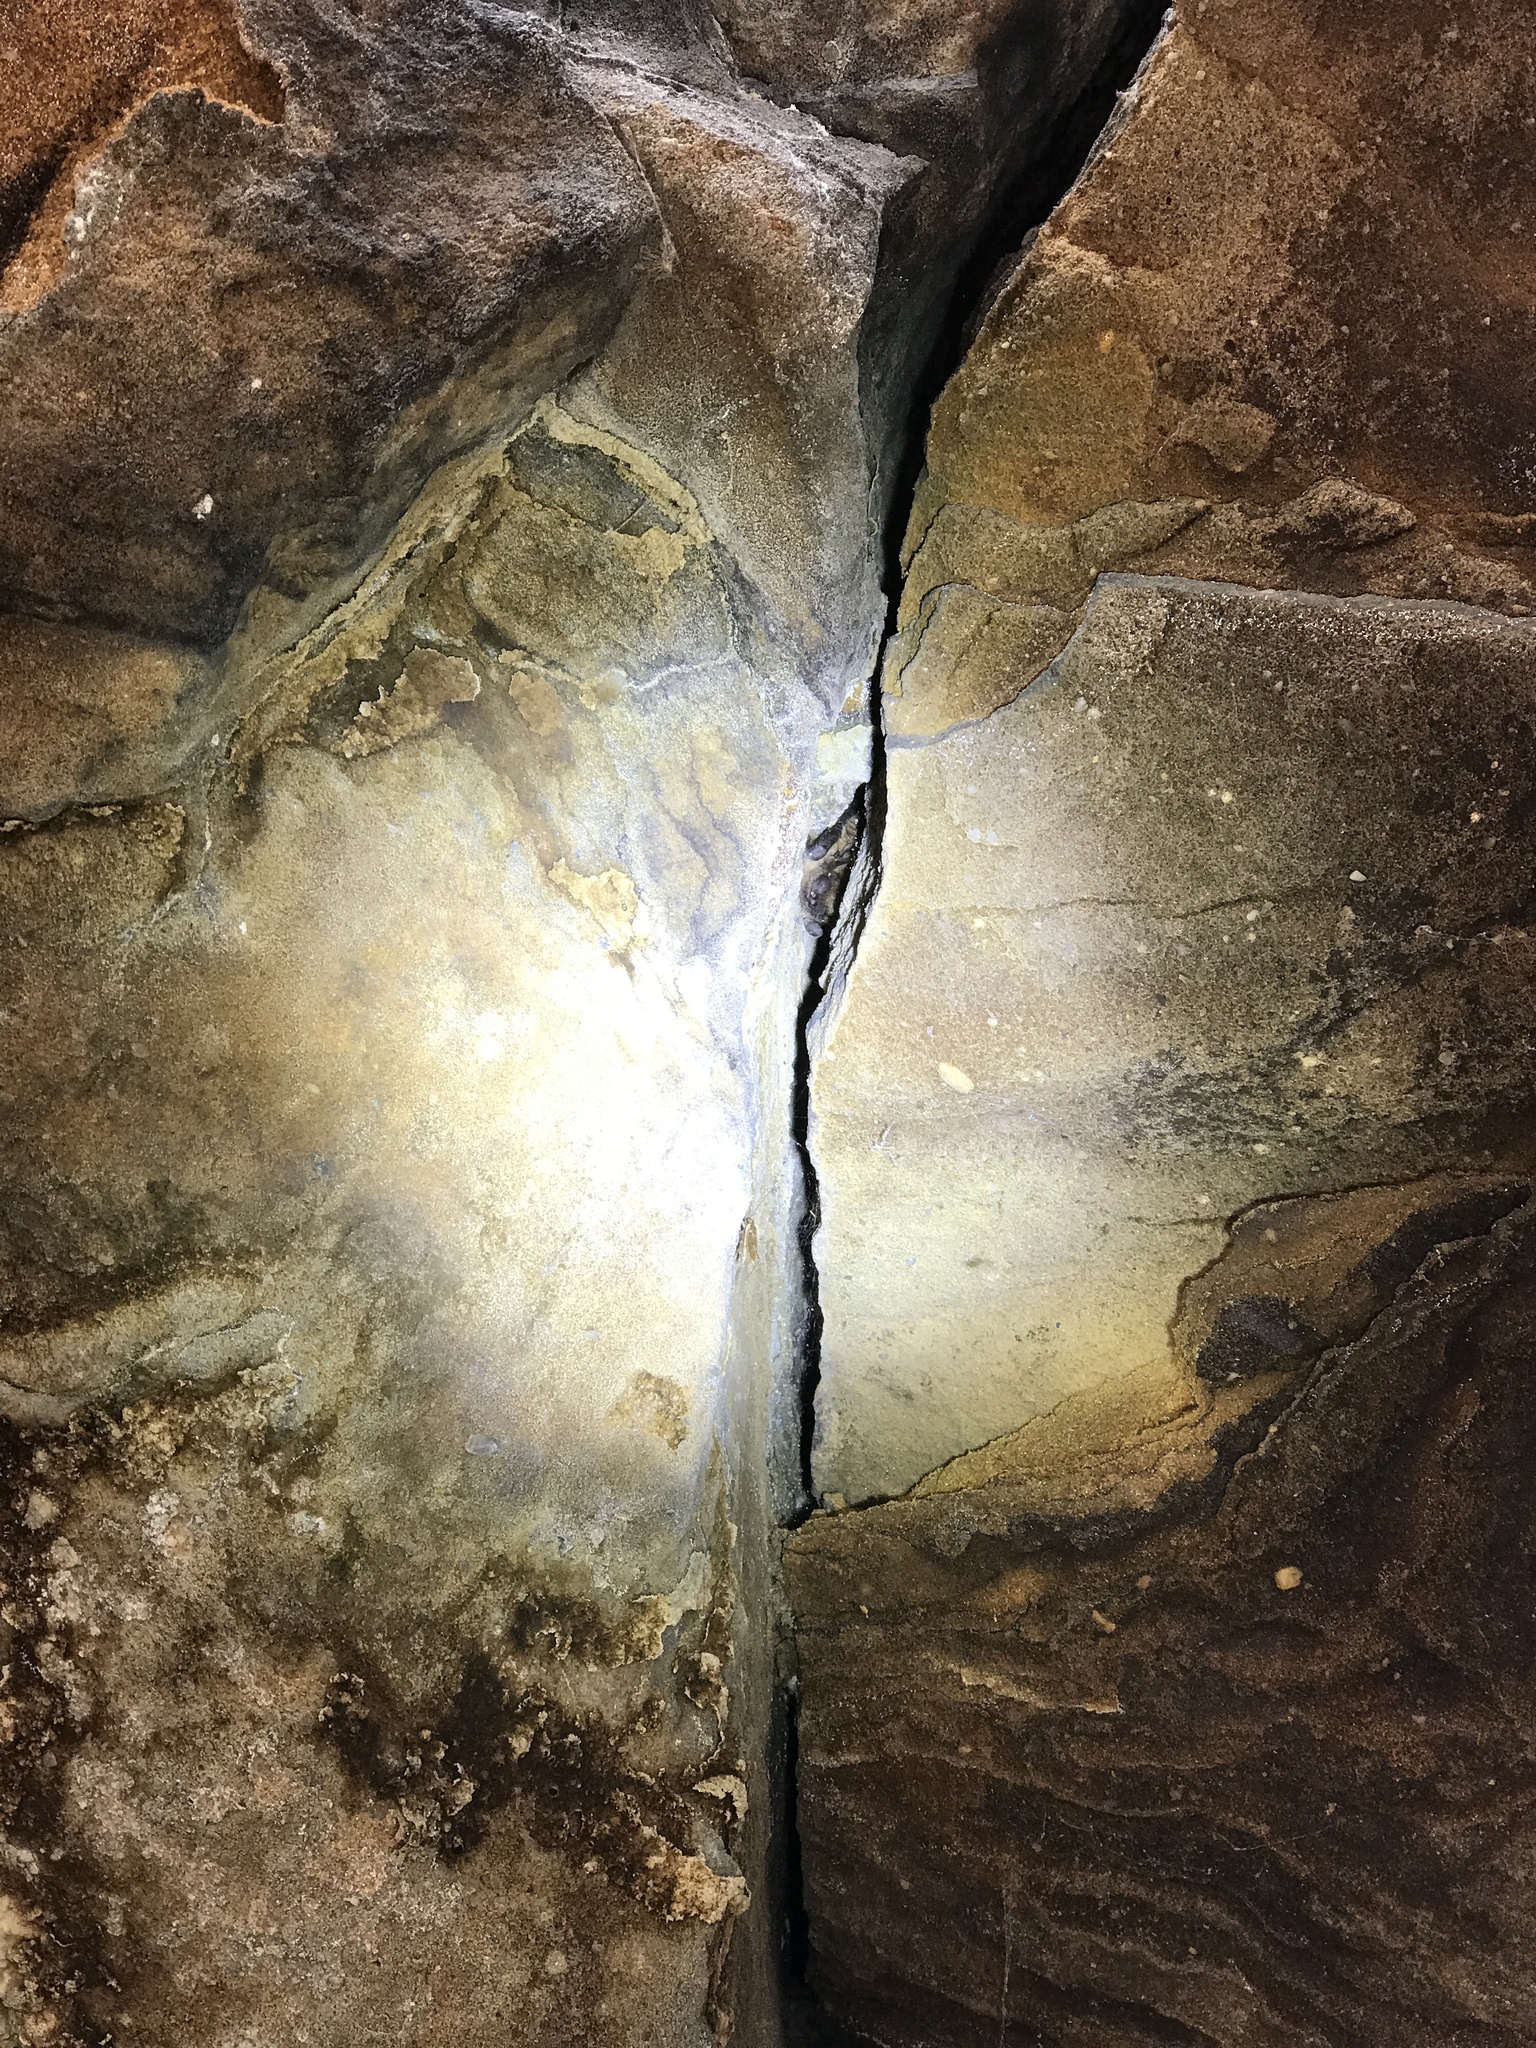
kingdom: Animalia
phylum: Chordata
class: Mammalia
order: Chiroptera
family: Vespertilionidae
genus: Eptesicus
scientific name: Eptesicus fuscus
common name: Big brown bat
